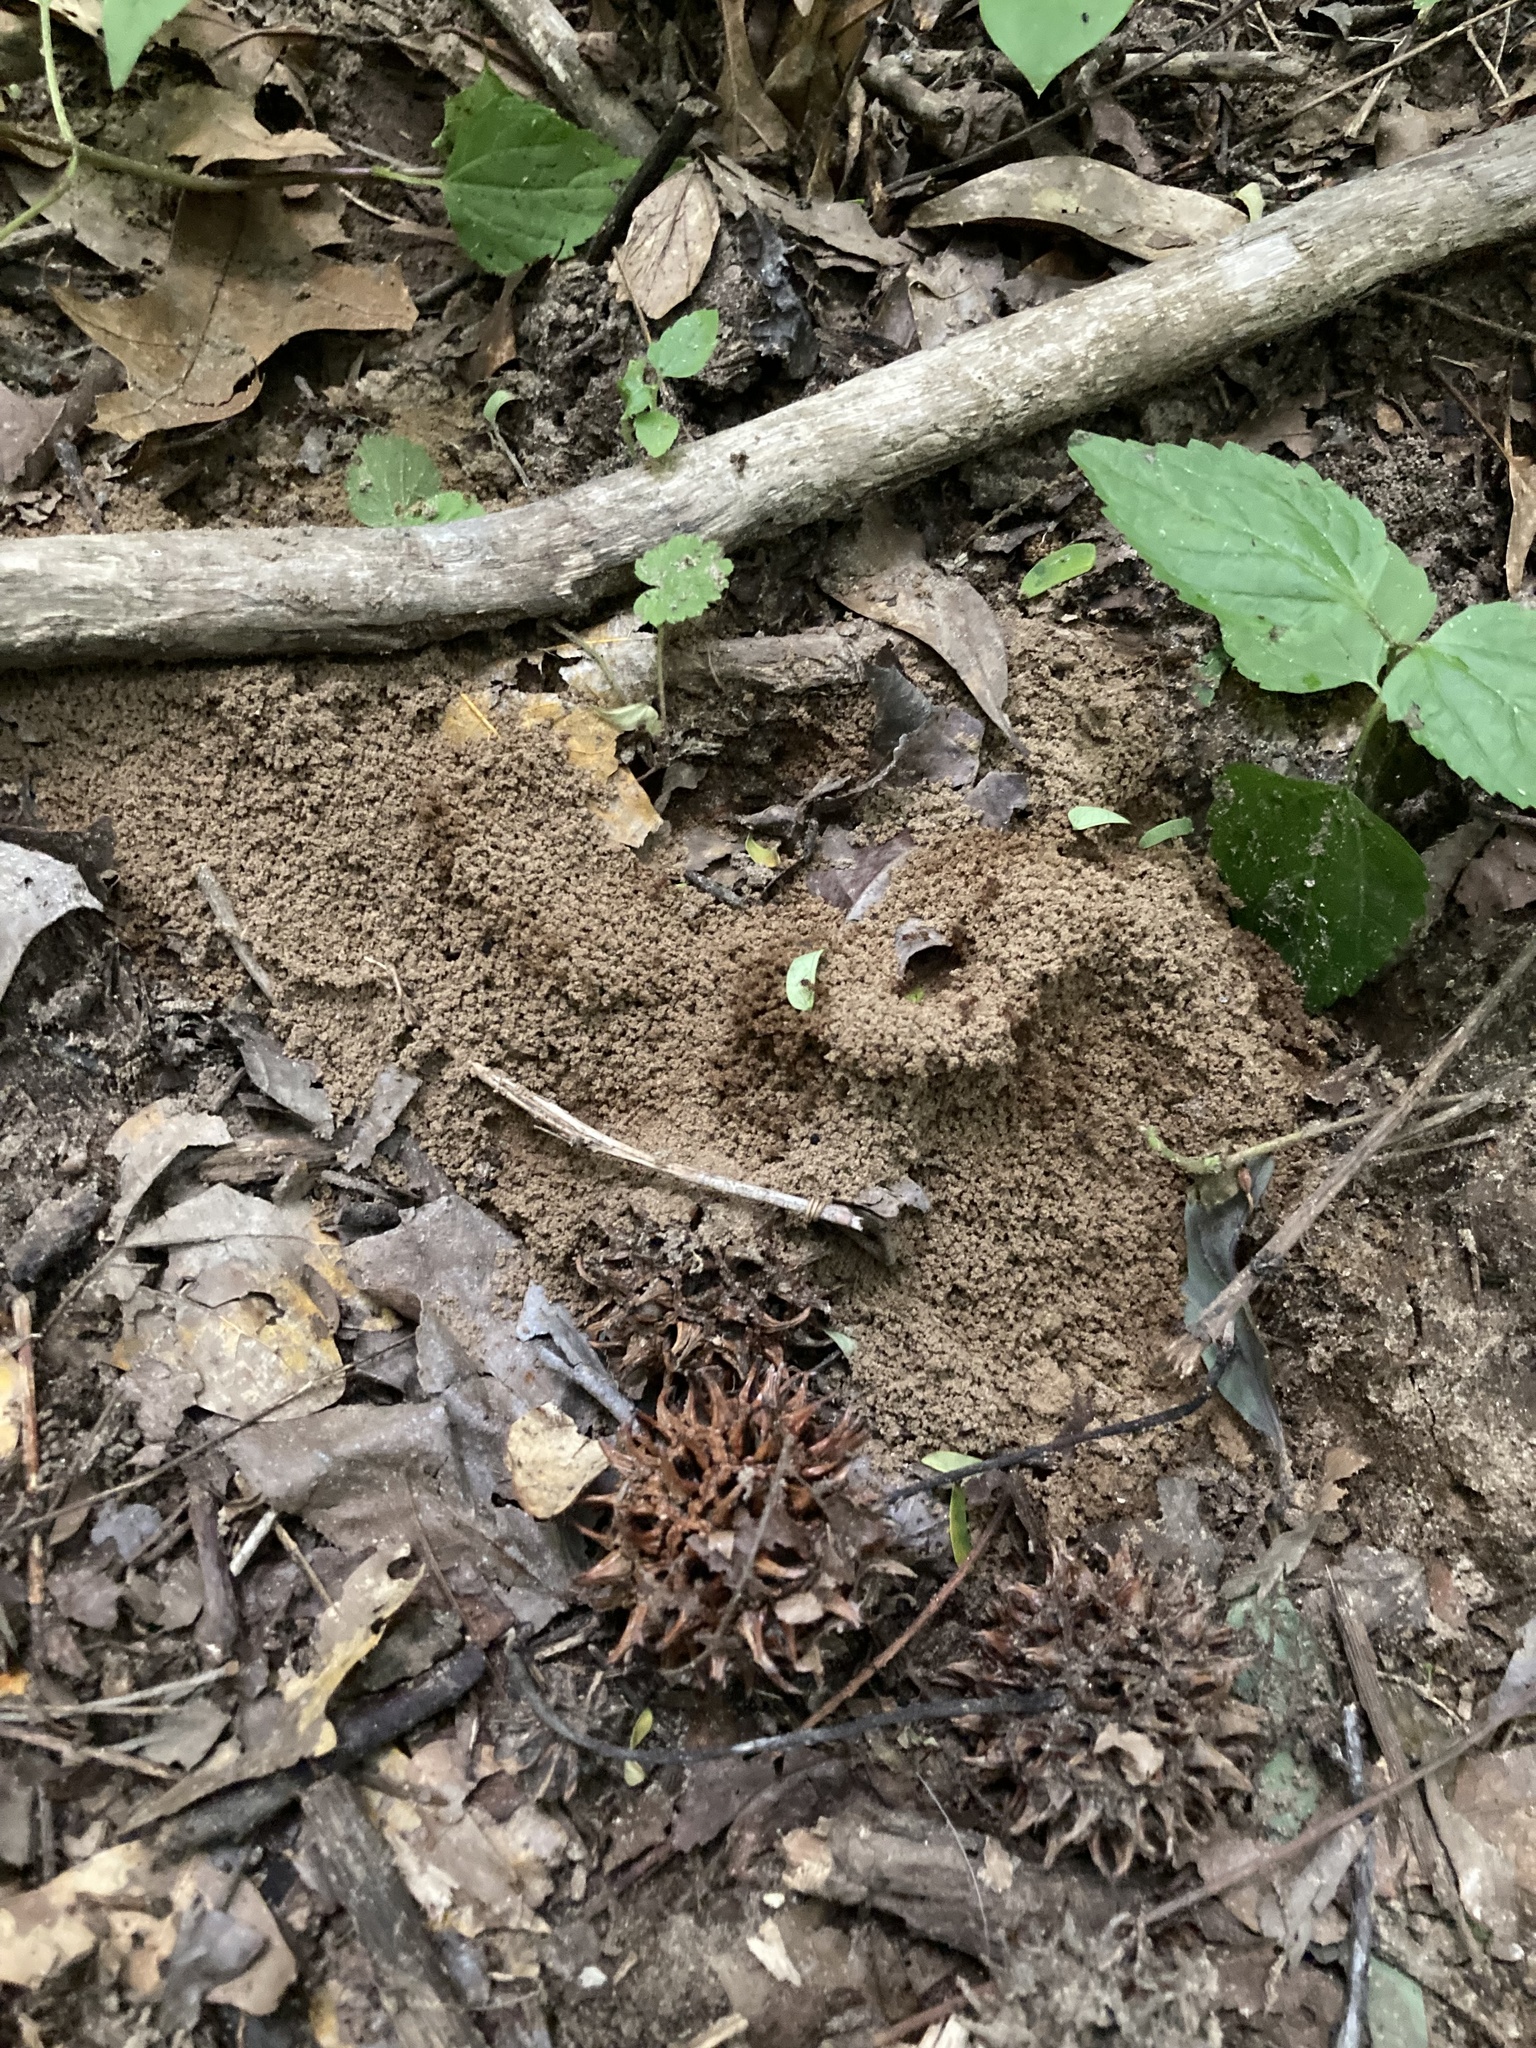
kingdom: Animalia
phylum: Arthropoda
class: Insecta
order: Hymenoptera
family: Formicidae
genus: Trachymyrmex
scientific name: Trachymyrmex septentrionalis
